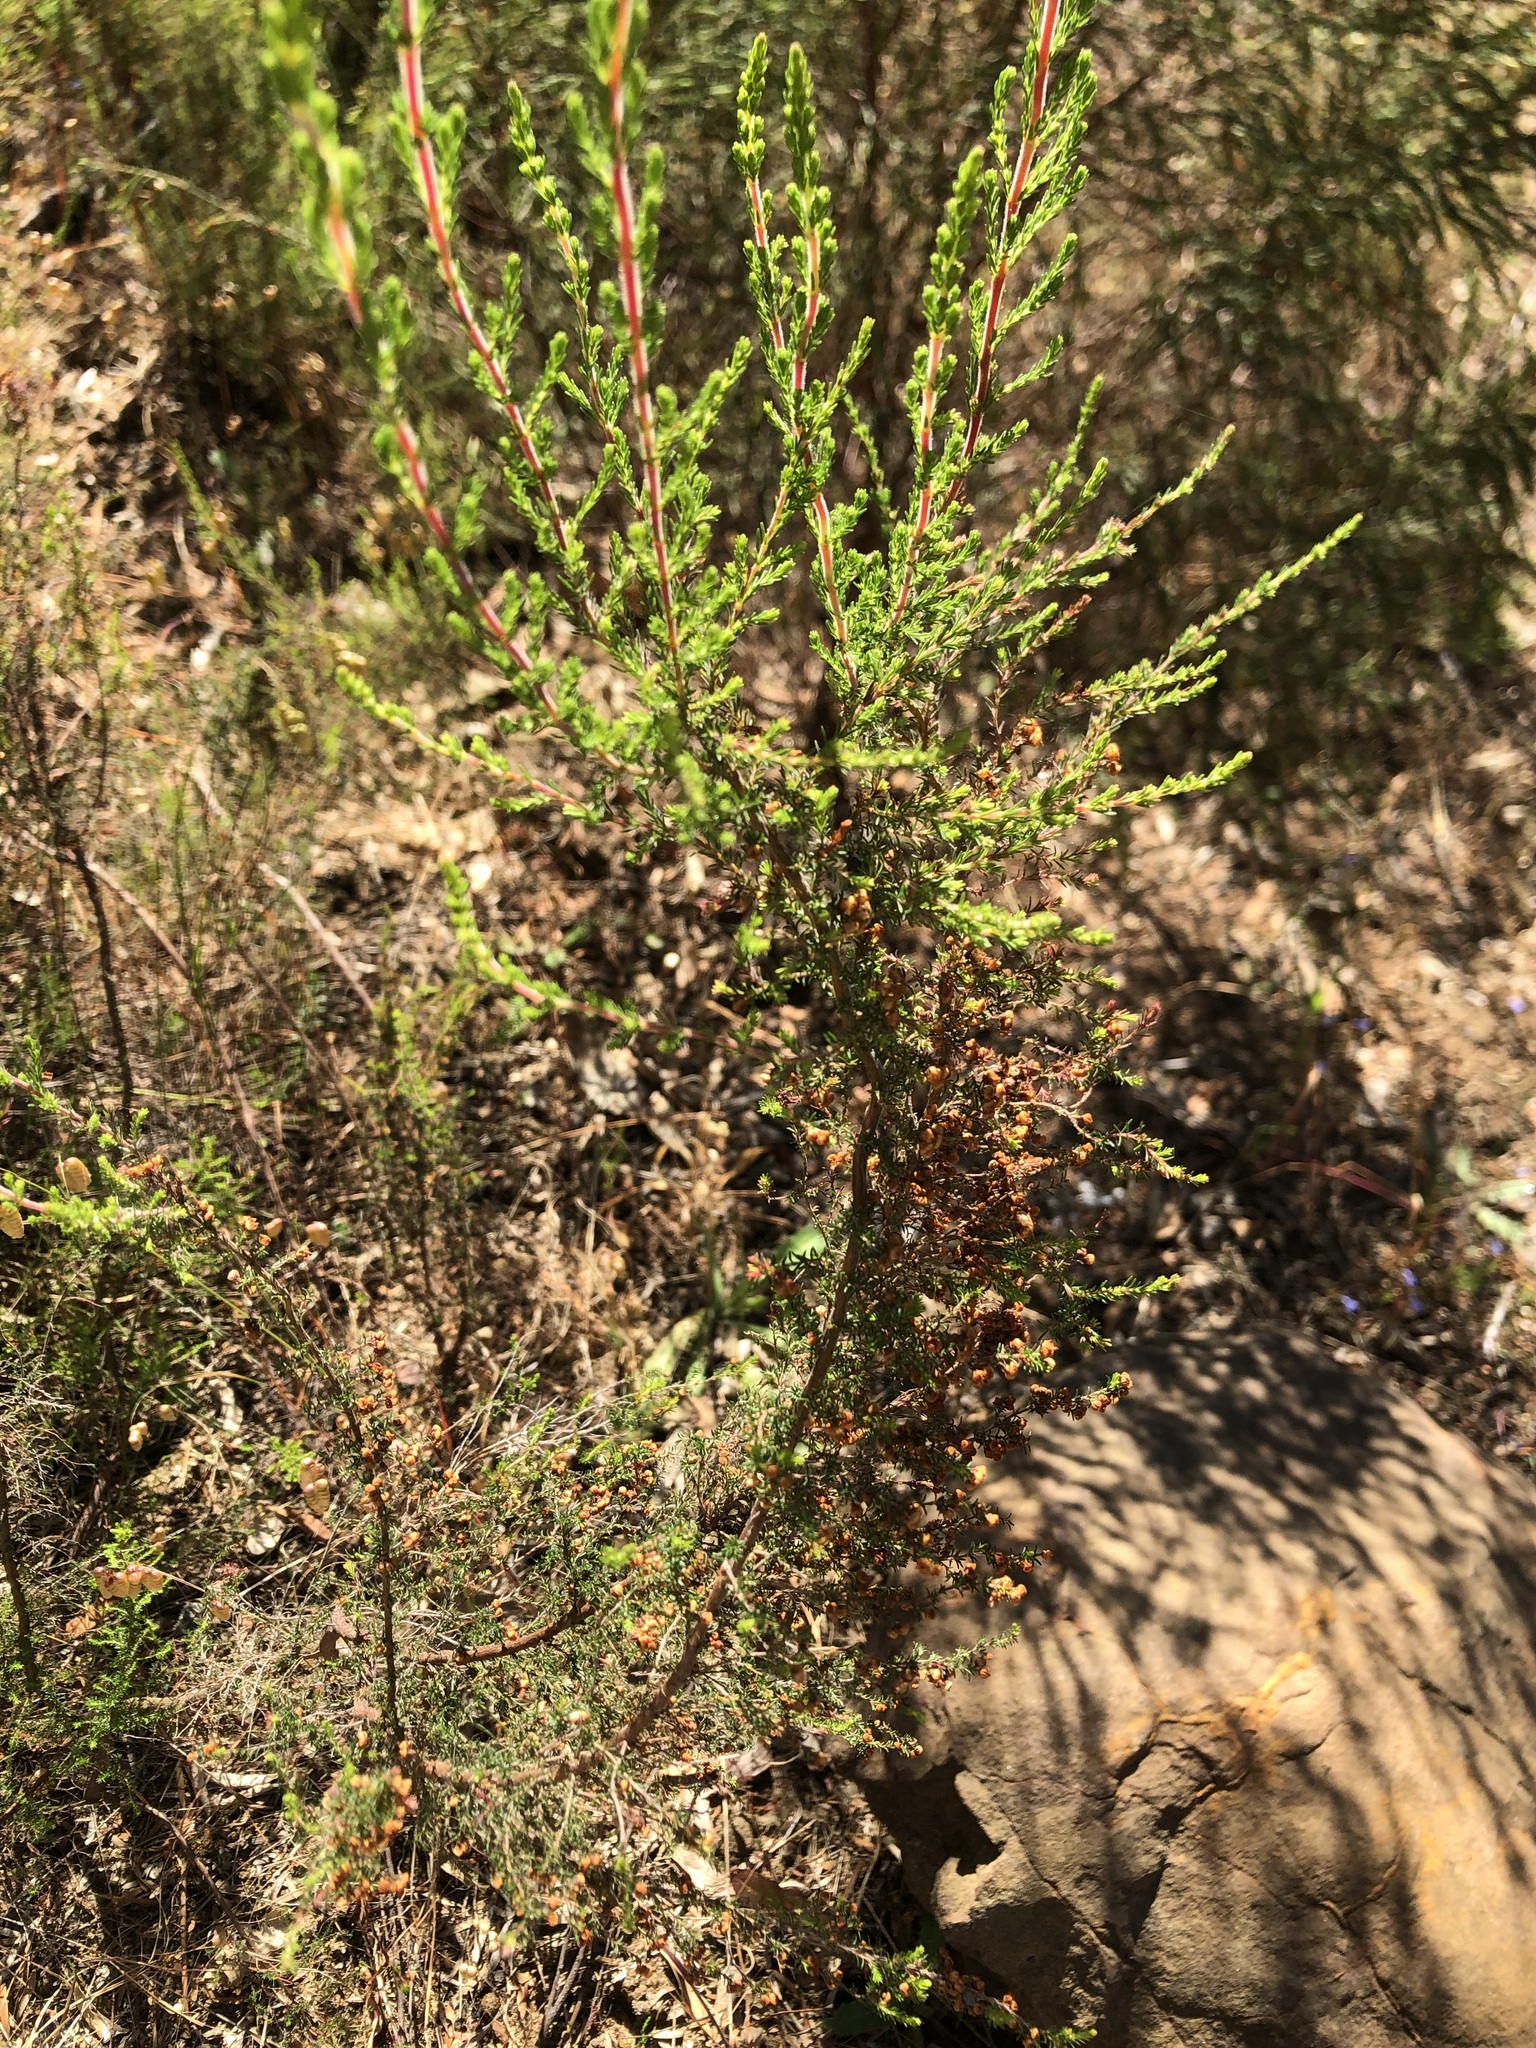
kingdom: Plantae
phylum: Tracheophyta
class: Magnoliopsida
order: Ericales
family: Ericaceae
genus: Erica
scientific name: Erica mauritanica
